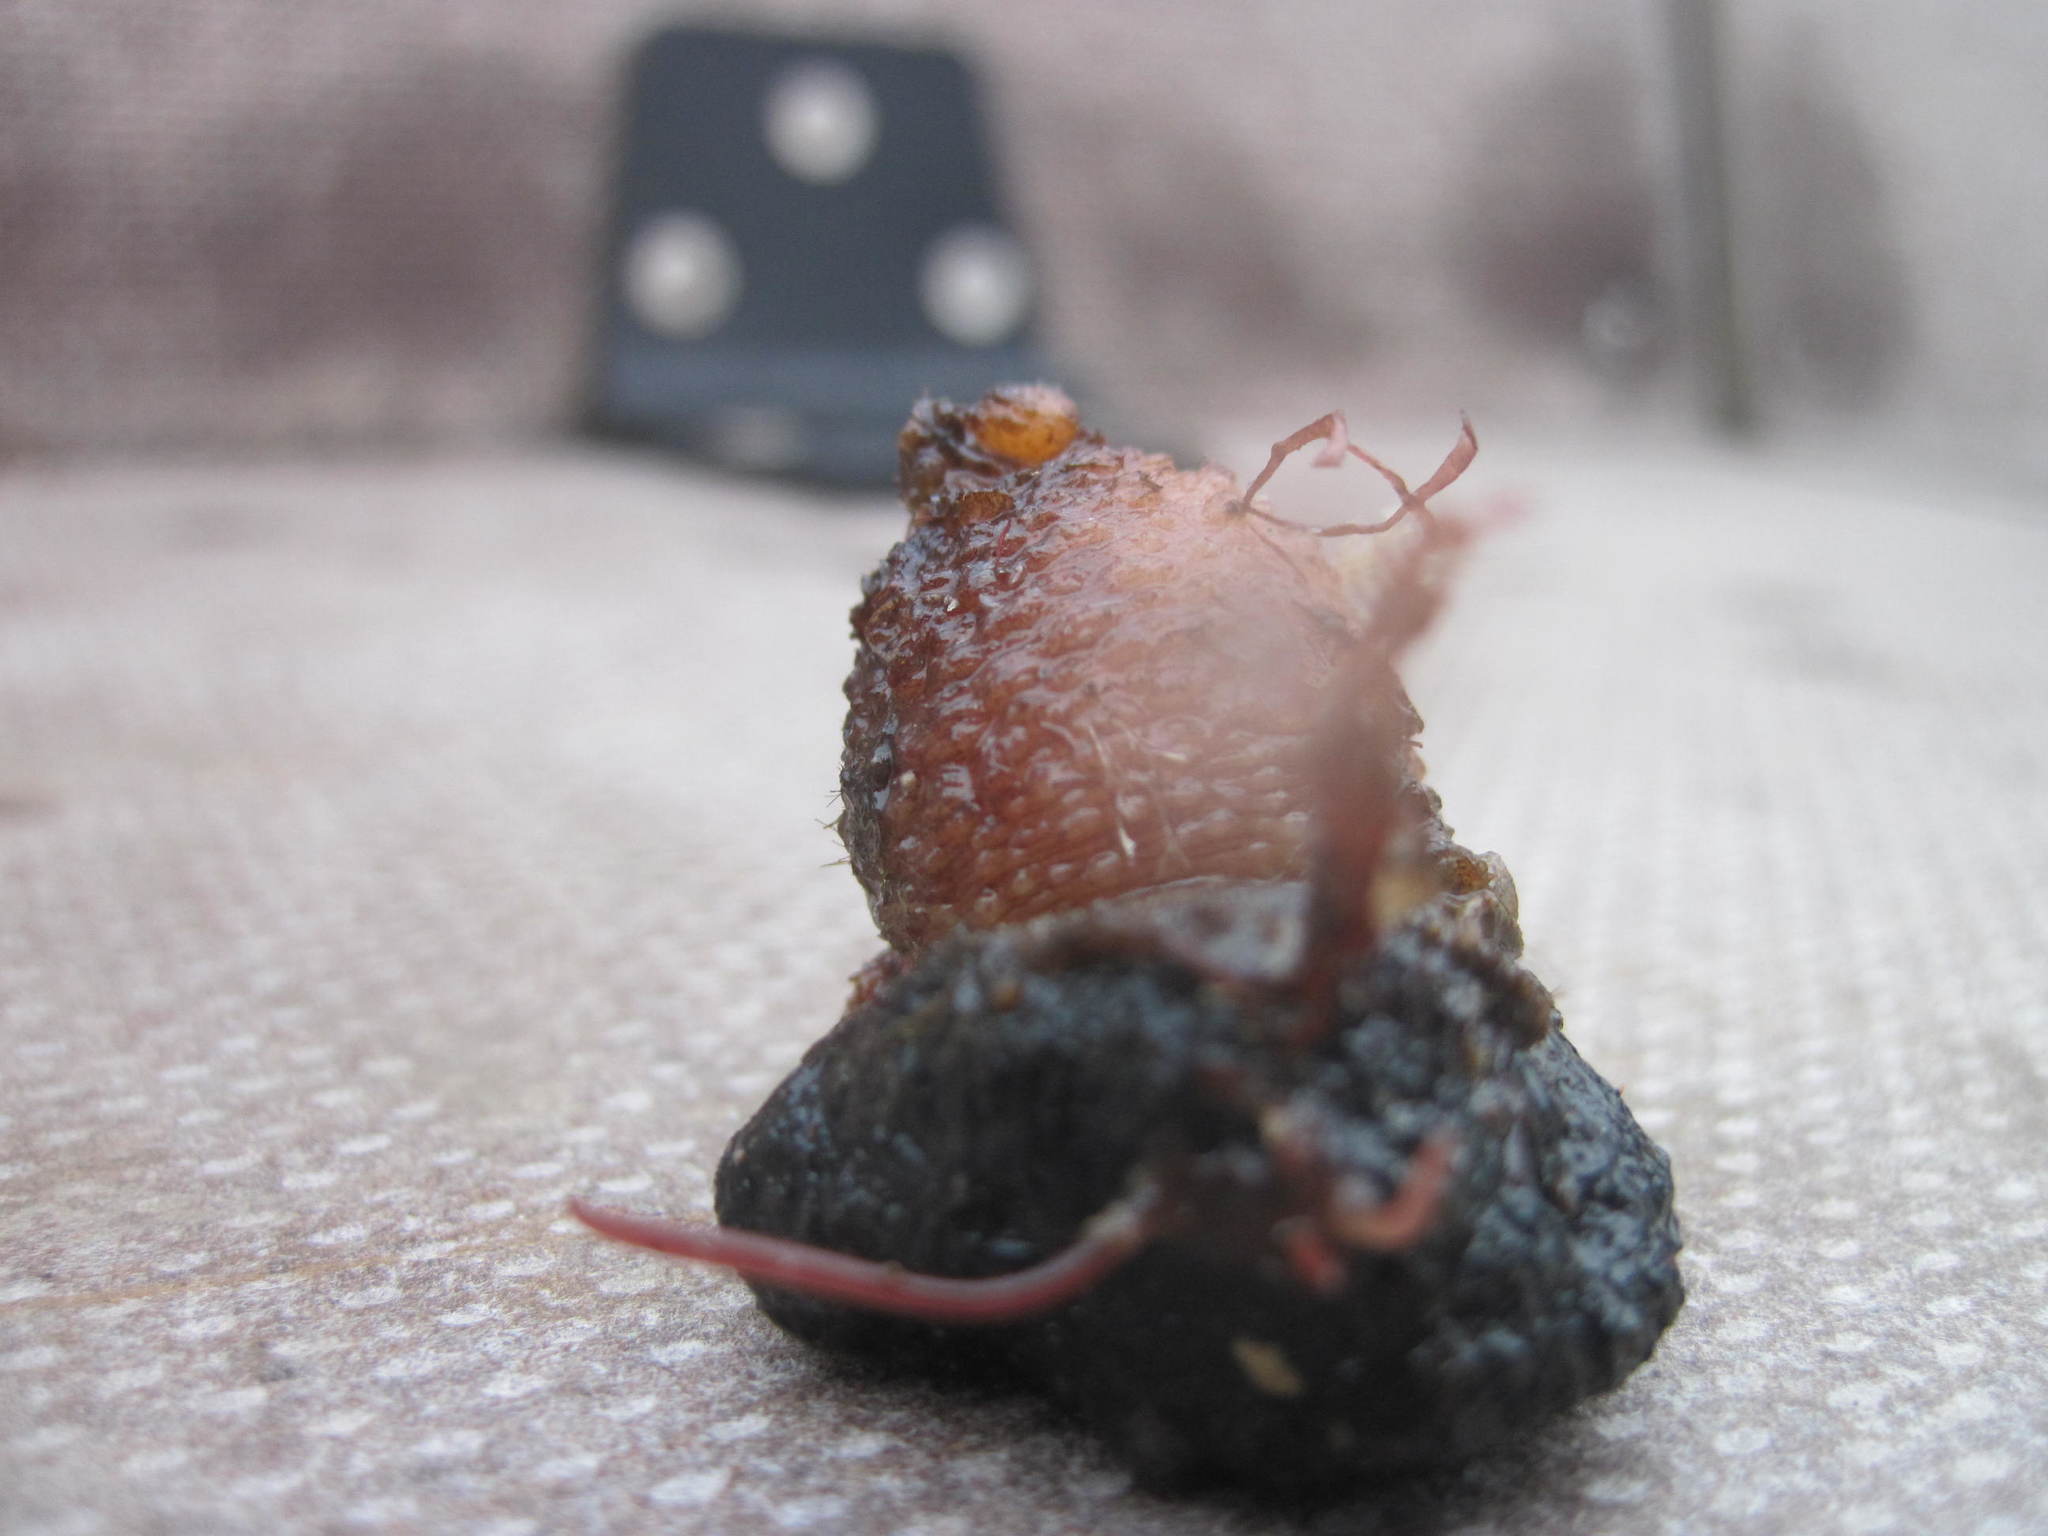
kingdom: Animalia
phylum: Chordata
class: Ascidiacea
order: Stolidobranchia
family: Styelidae
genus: Styela
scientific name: Styela rustica
